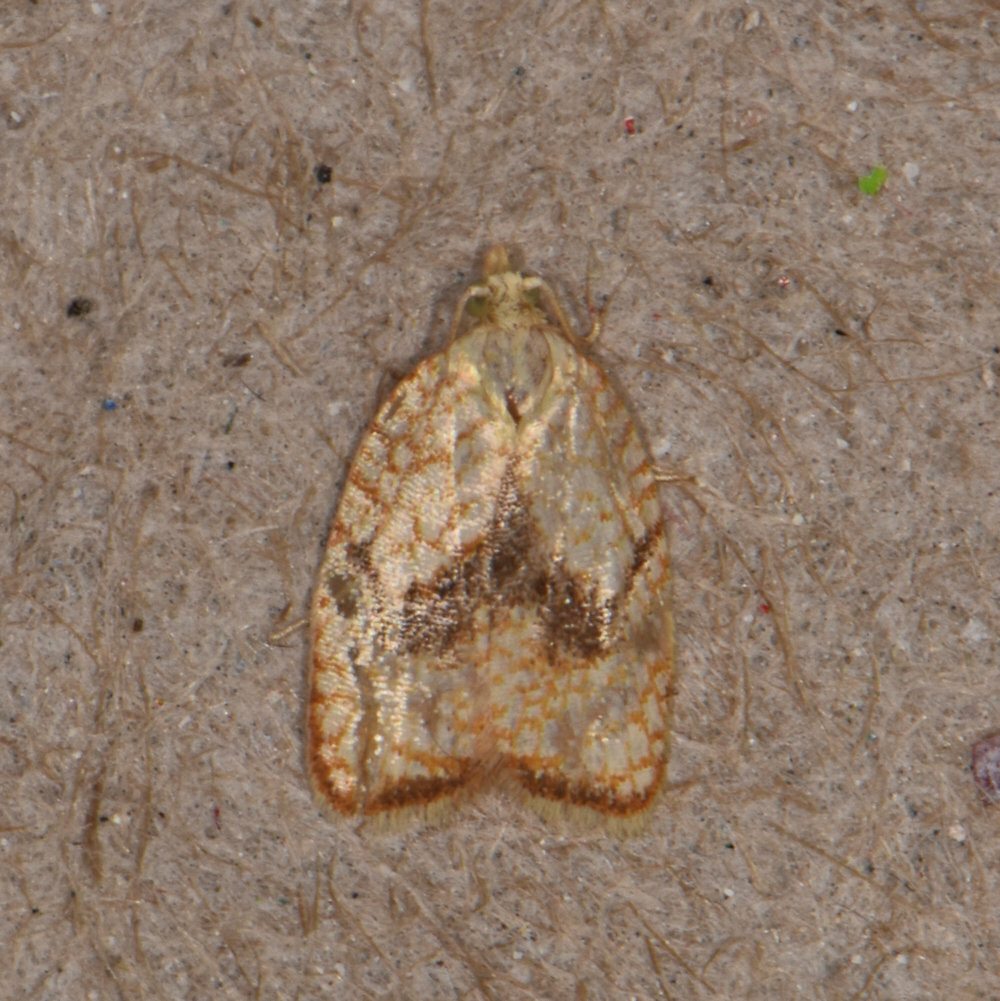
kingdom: Animalia
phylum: Arthropoda
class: Insecta
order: Lepidoptera
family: Tortricidae
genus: Acleris
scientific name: Acleris forsskaleana
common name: Maple button
